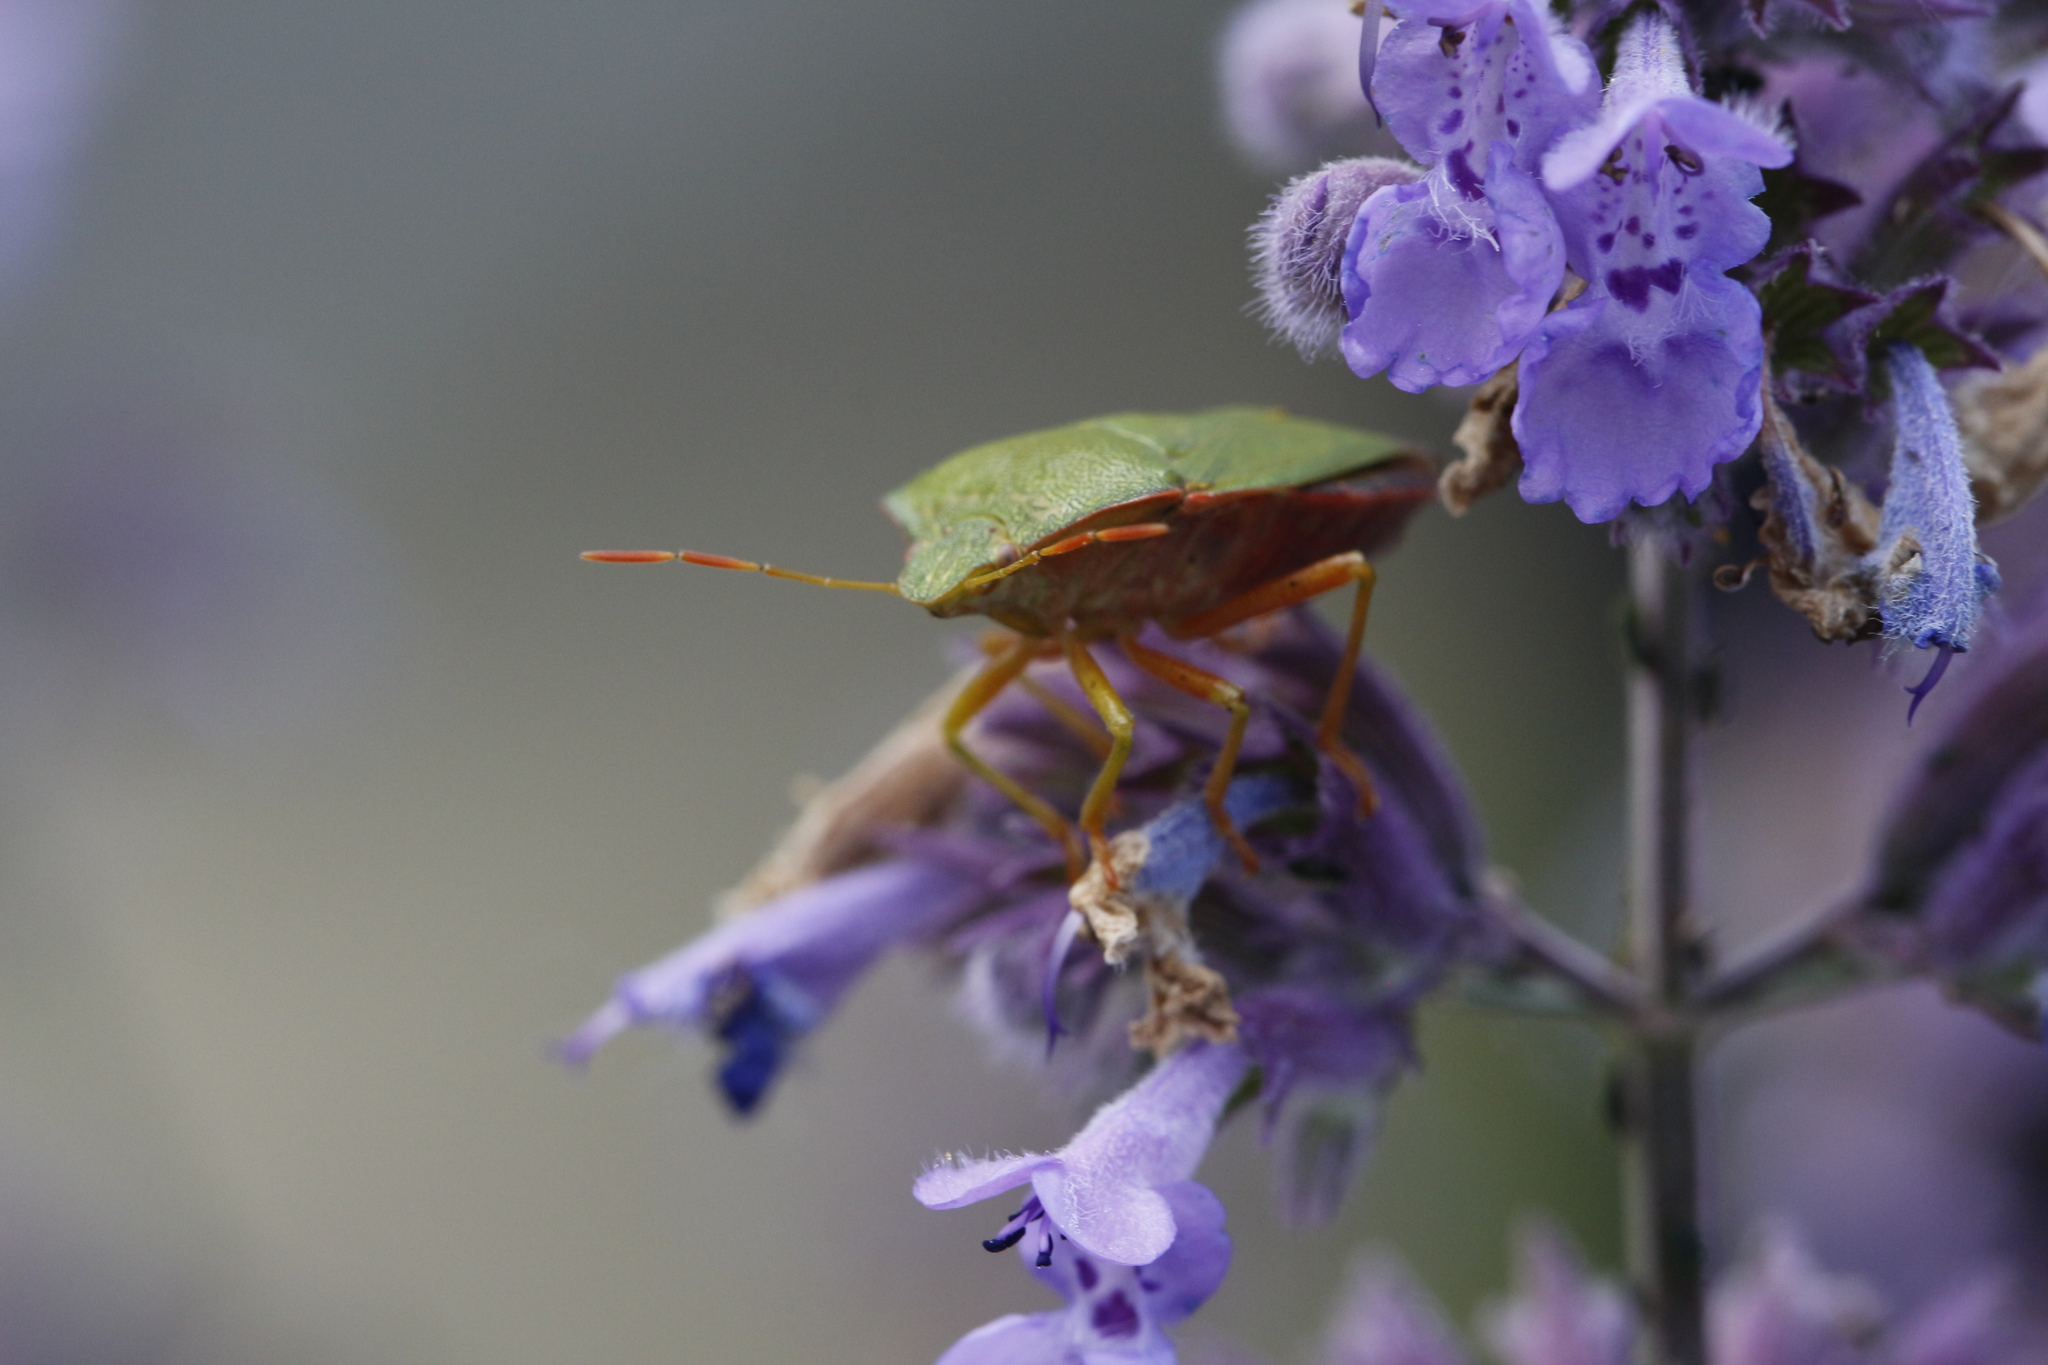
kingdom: Animalia
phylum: Arthropoda
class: Insecta
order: Hemiptera
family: Pentatomidae
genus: Palomena
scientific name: Palomena prasina
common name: Green shieldbug
